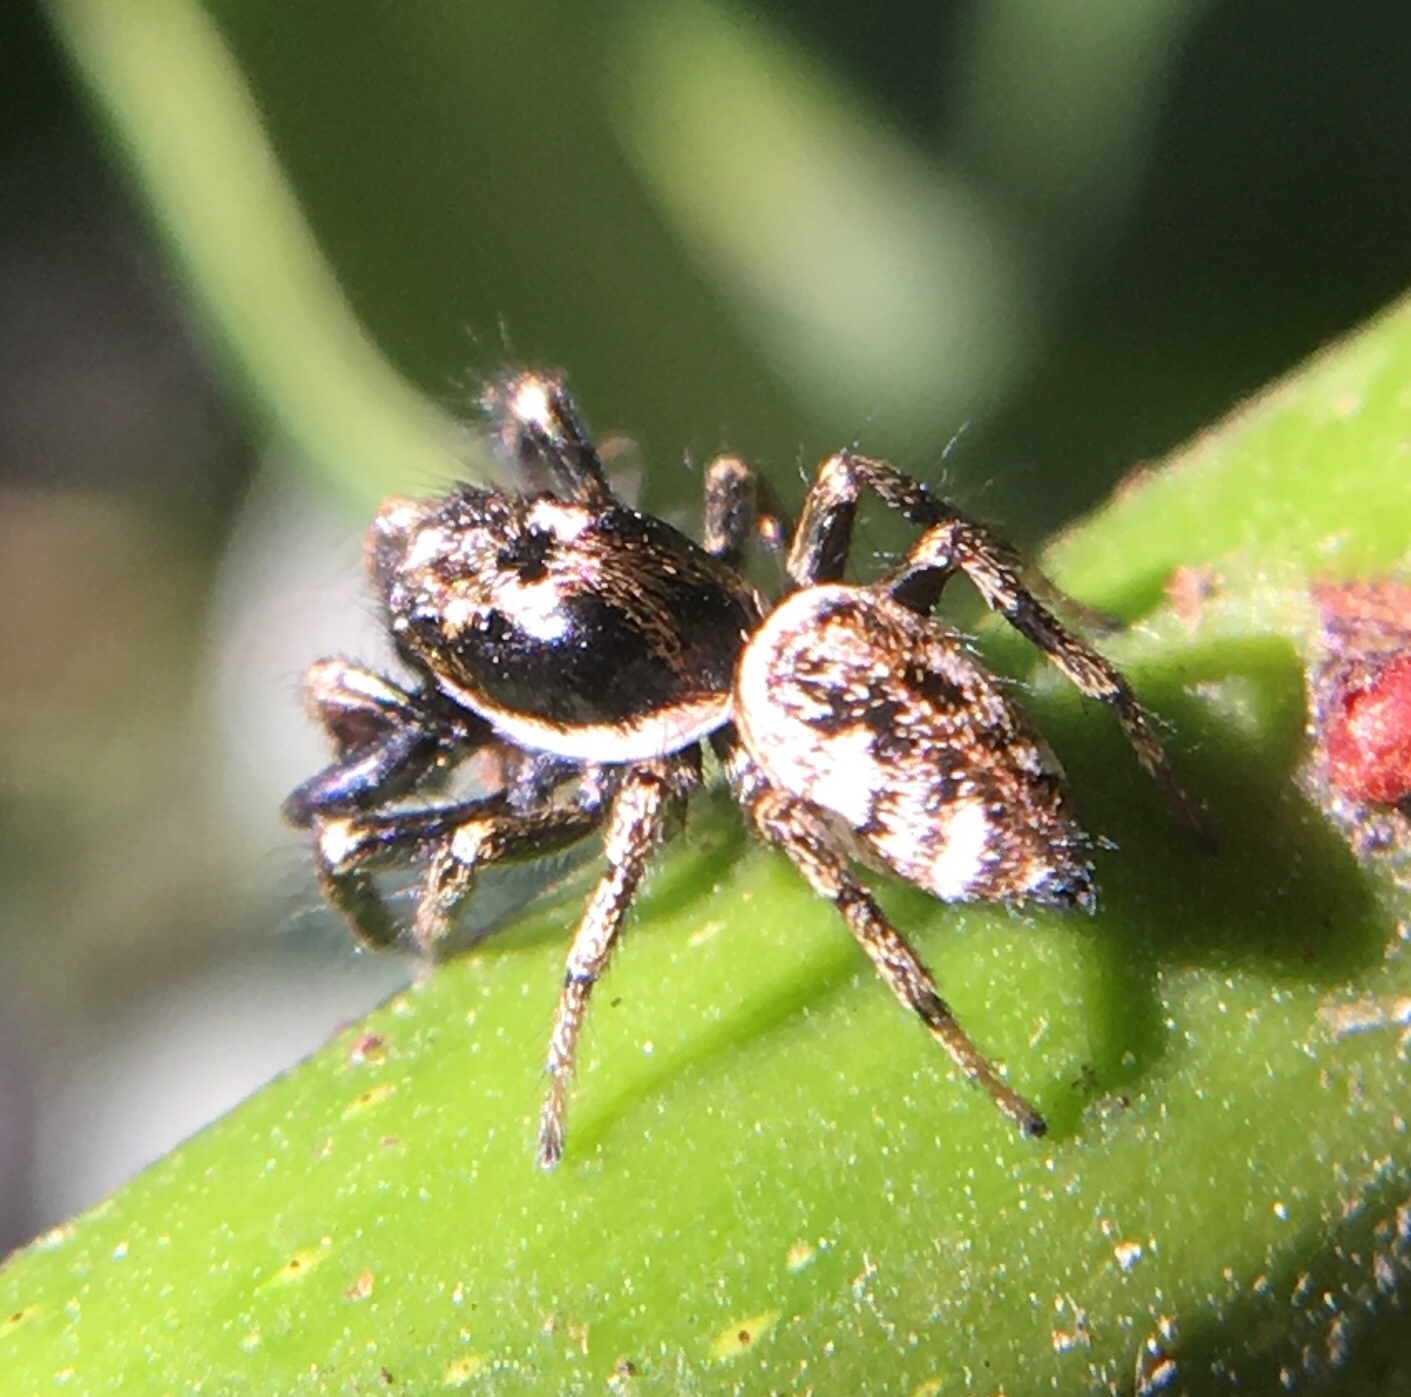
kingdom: Animalia
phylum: Arthropoda
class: Arachnida
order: Araneae
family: Salticidae
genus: Salticus
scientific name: Salticus scenicus
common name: Zebra jumper
